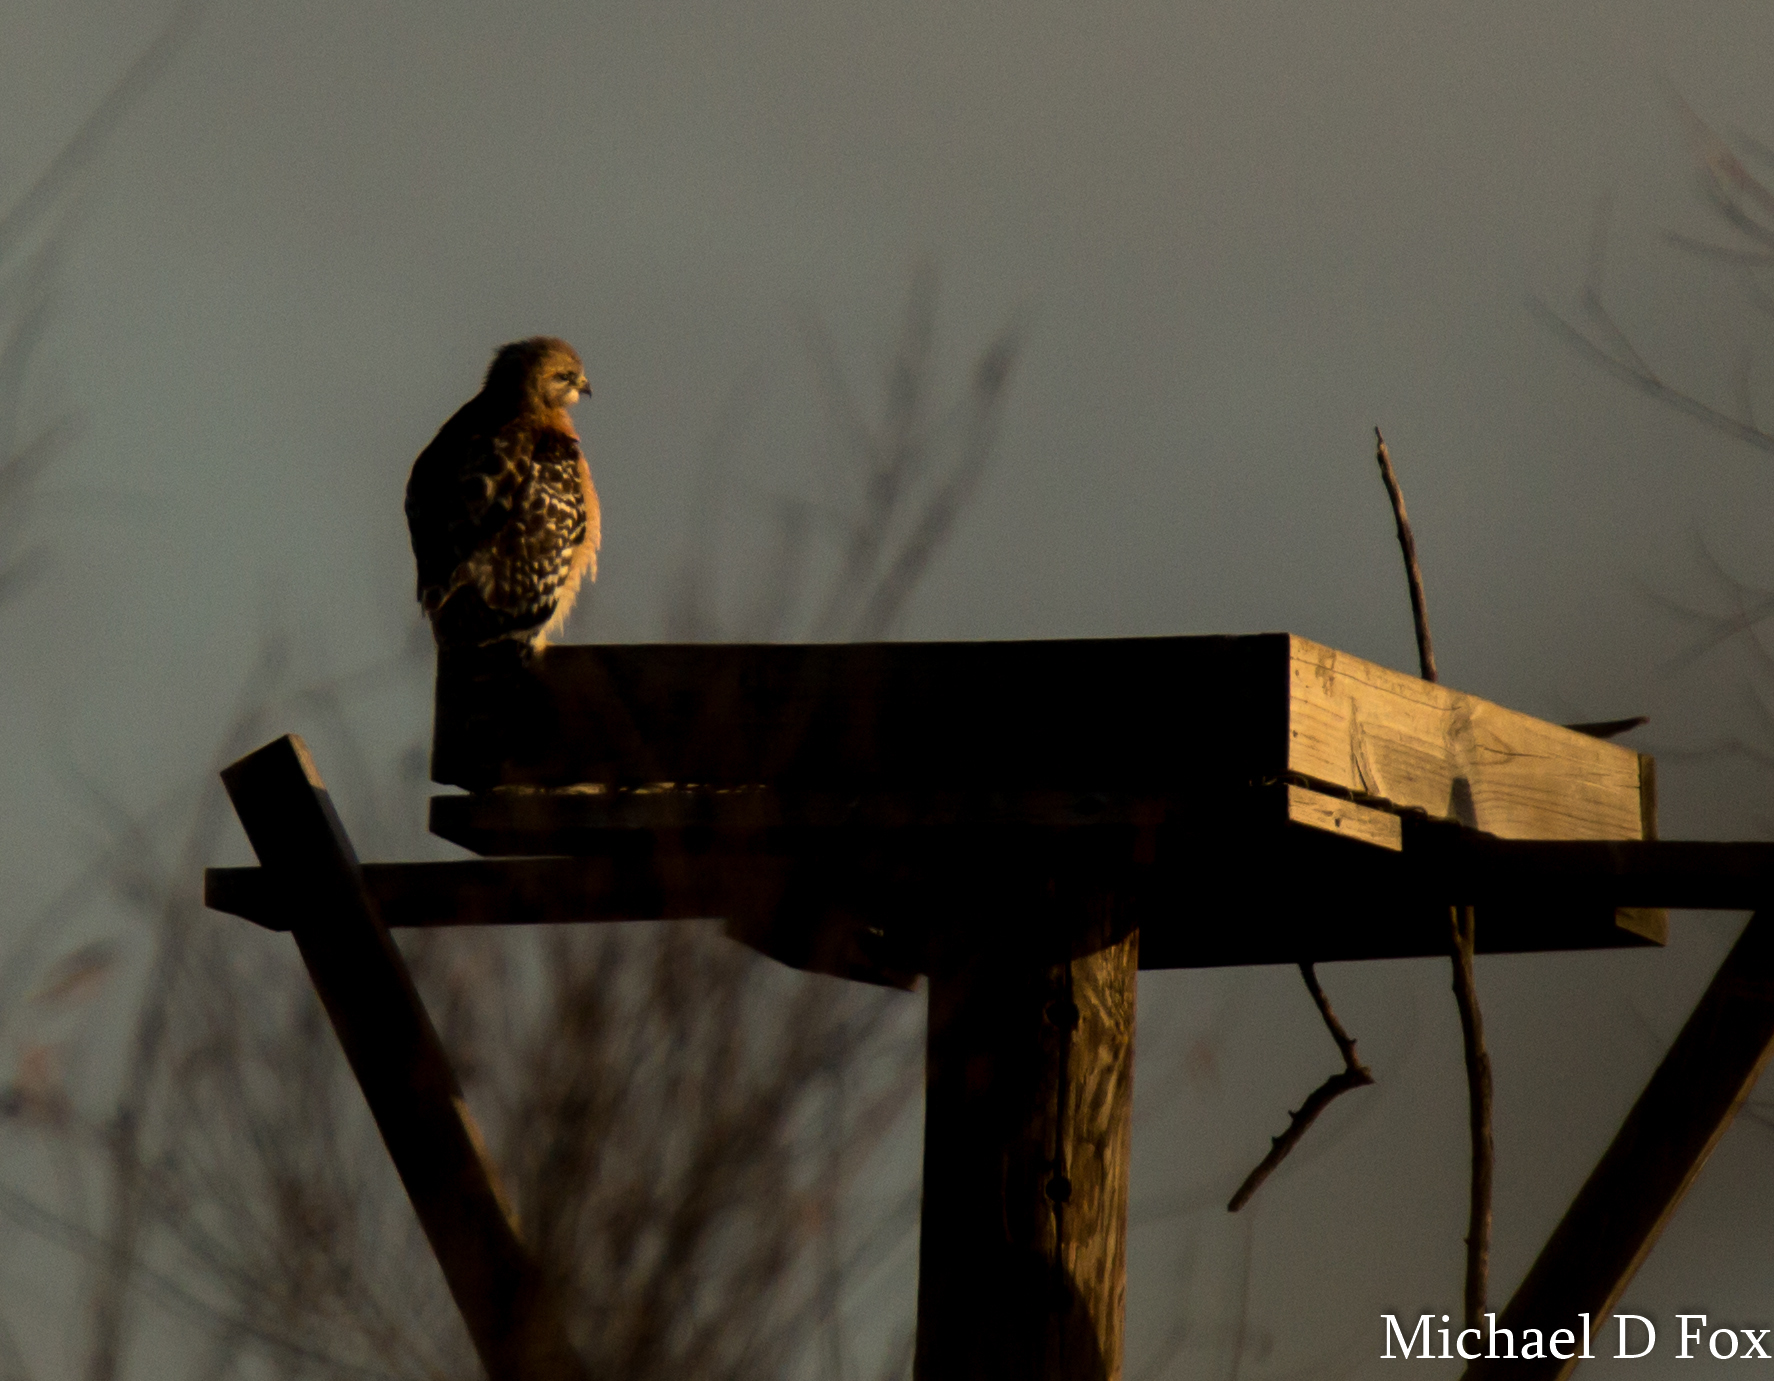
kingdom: Animalia
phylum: Chordata
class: Aves
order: Accipitriformes
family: Accipitridae
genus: Buteo
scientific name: Buteo lineatus
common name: Red-shouldered hawk
